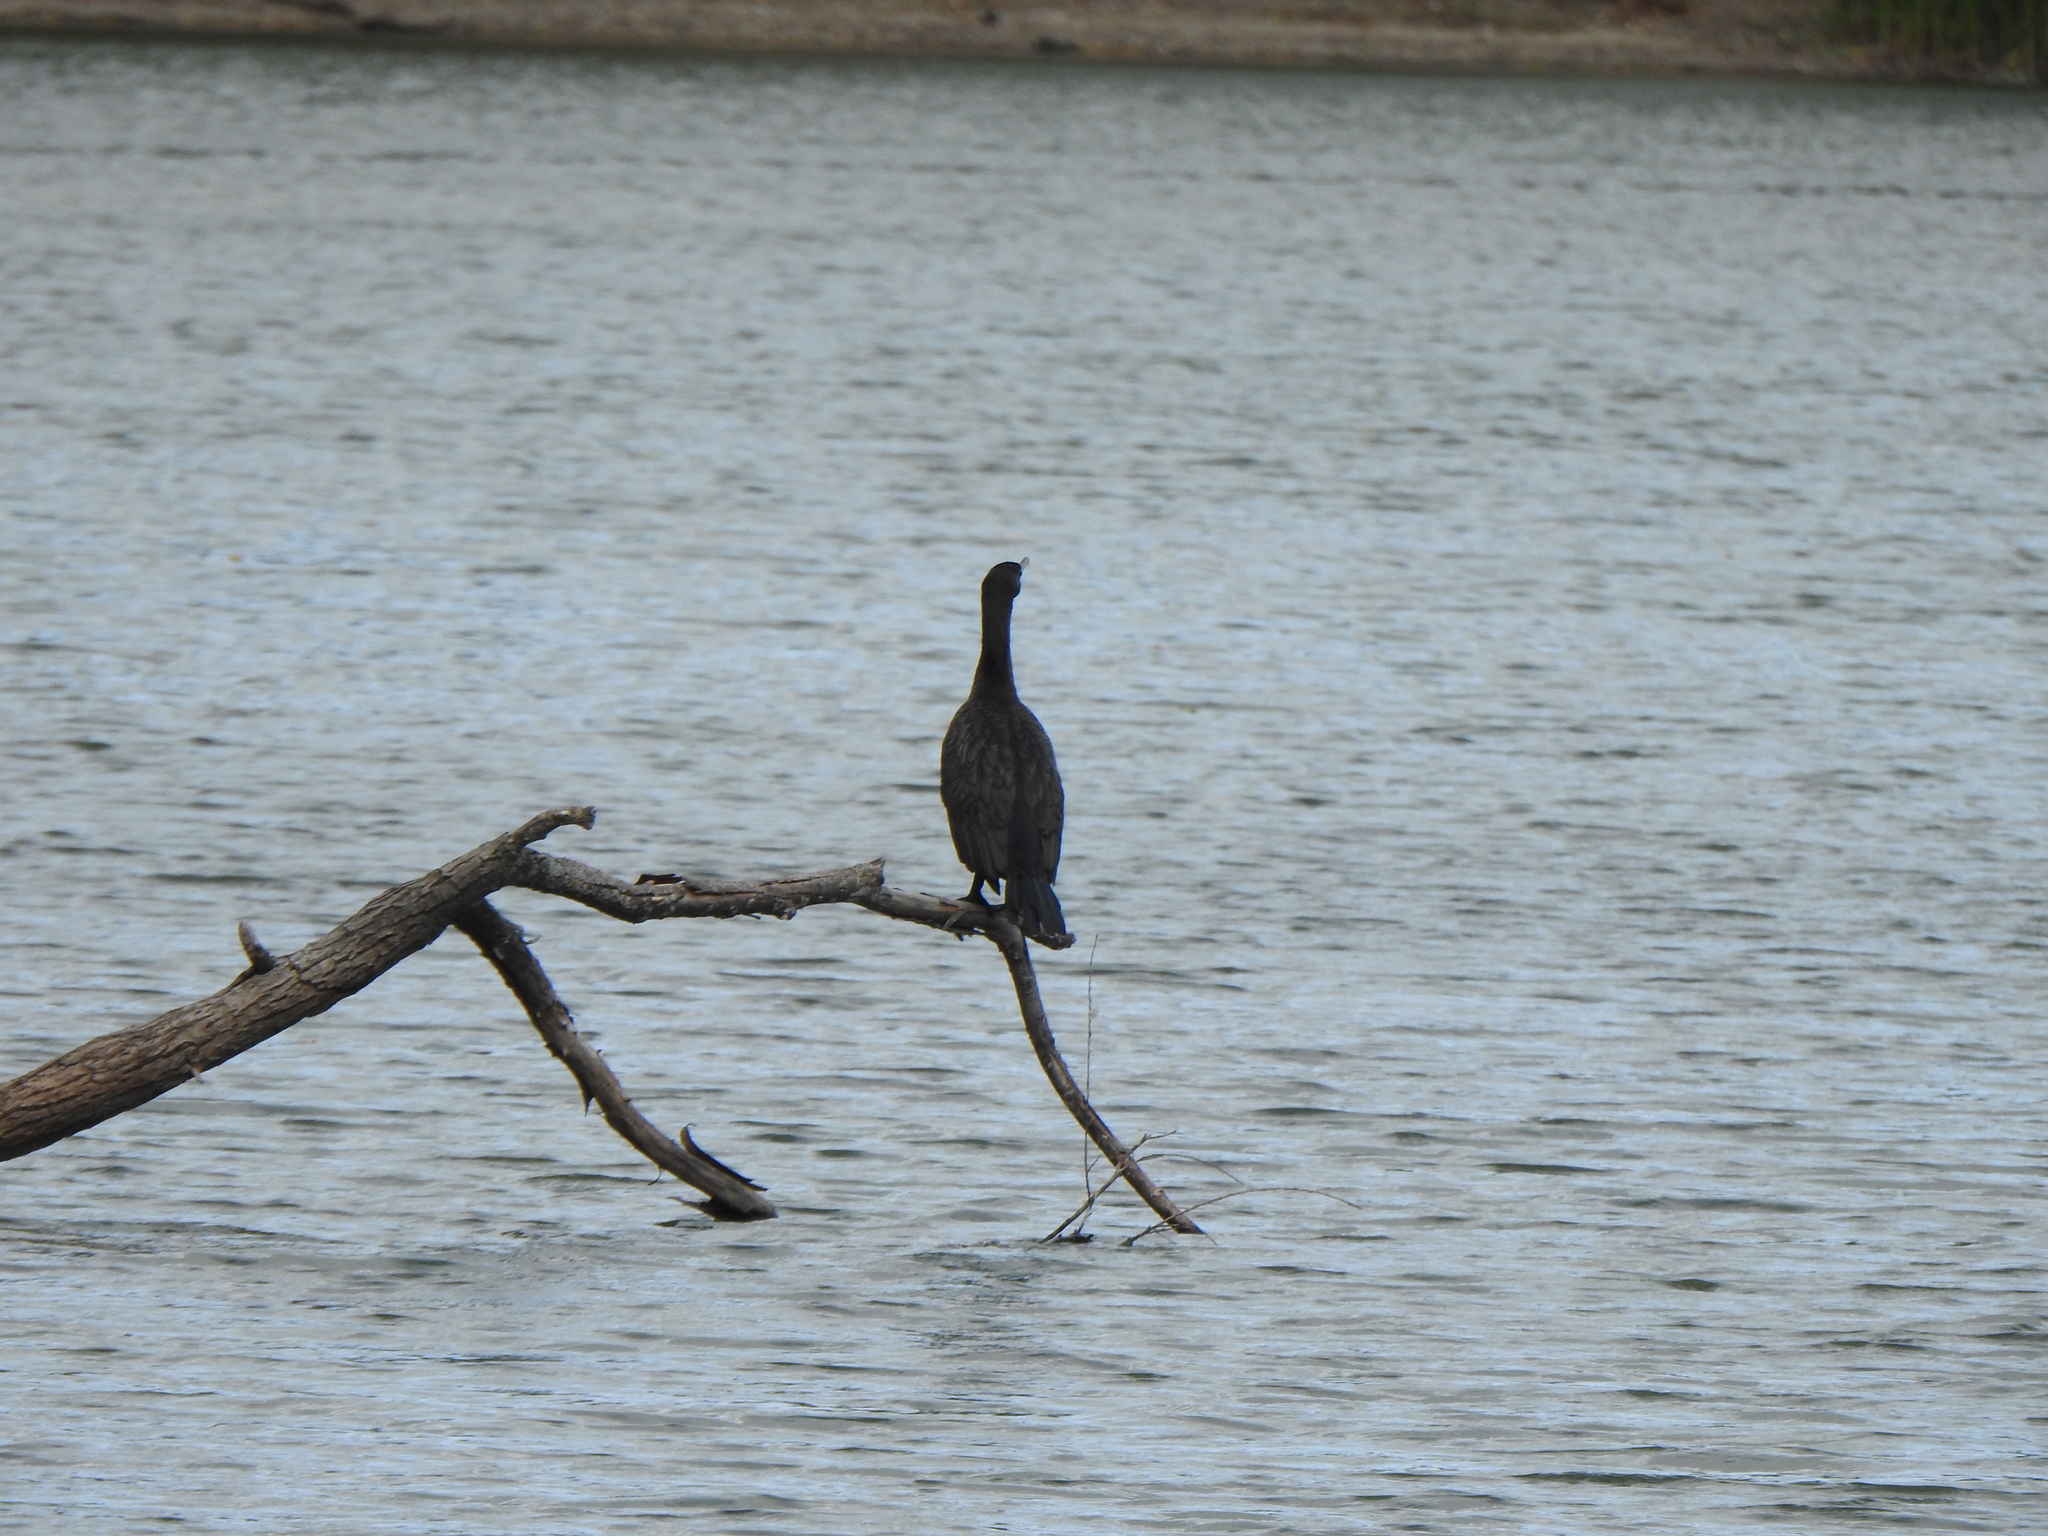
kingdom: Animalia
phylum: Chordata
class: Aves
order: Suliformes
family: Phalacrocoracidae
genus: Phalacrocorax
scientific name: Phalacrocorax auritus
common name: Double-crested cormorant
